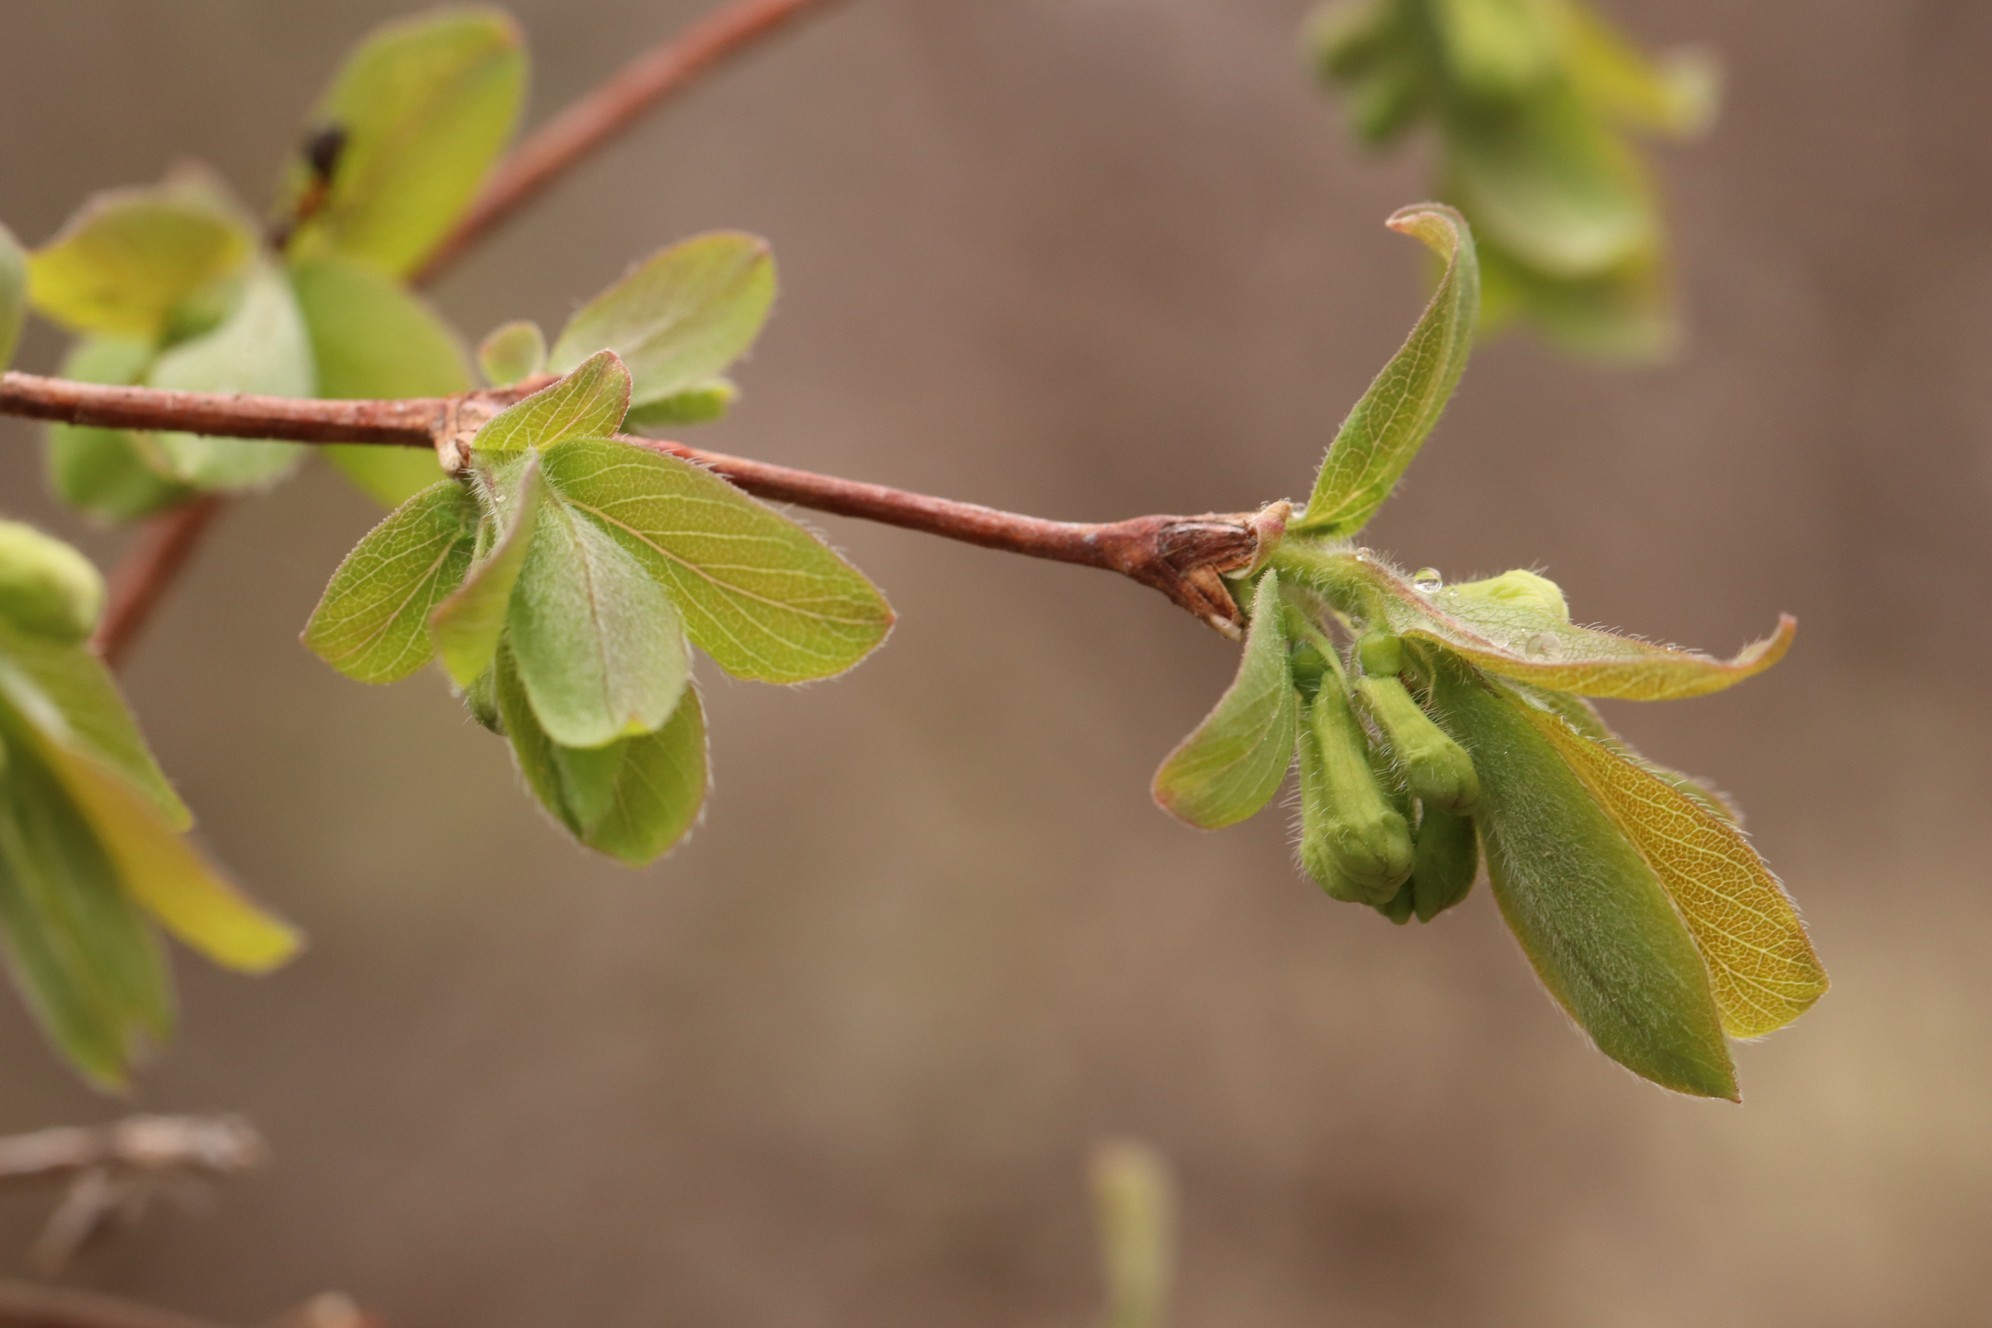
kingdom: Plantae
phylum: Tracheophyta
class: Magnoliopsida
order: Dipsacales
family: Caprifoliaceae
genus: Lonicera
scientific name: Lonicera caerulea
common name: Blue honeysuckle
